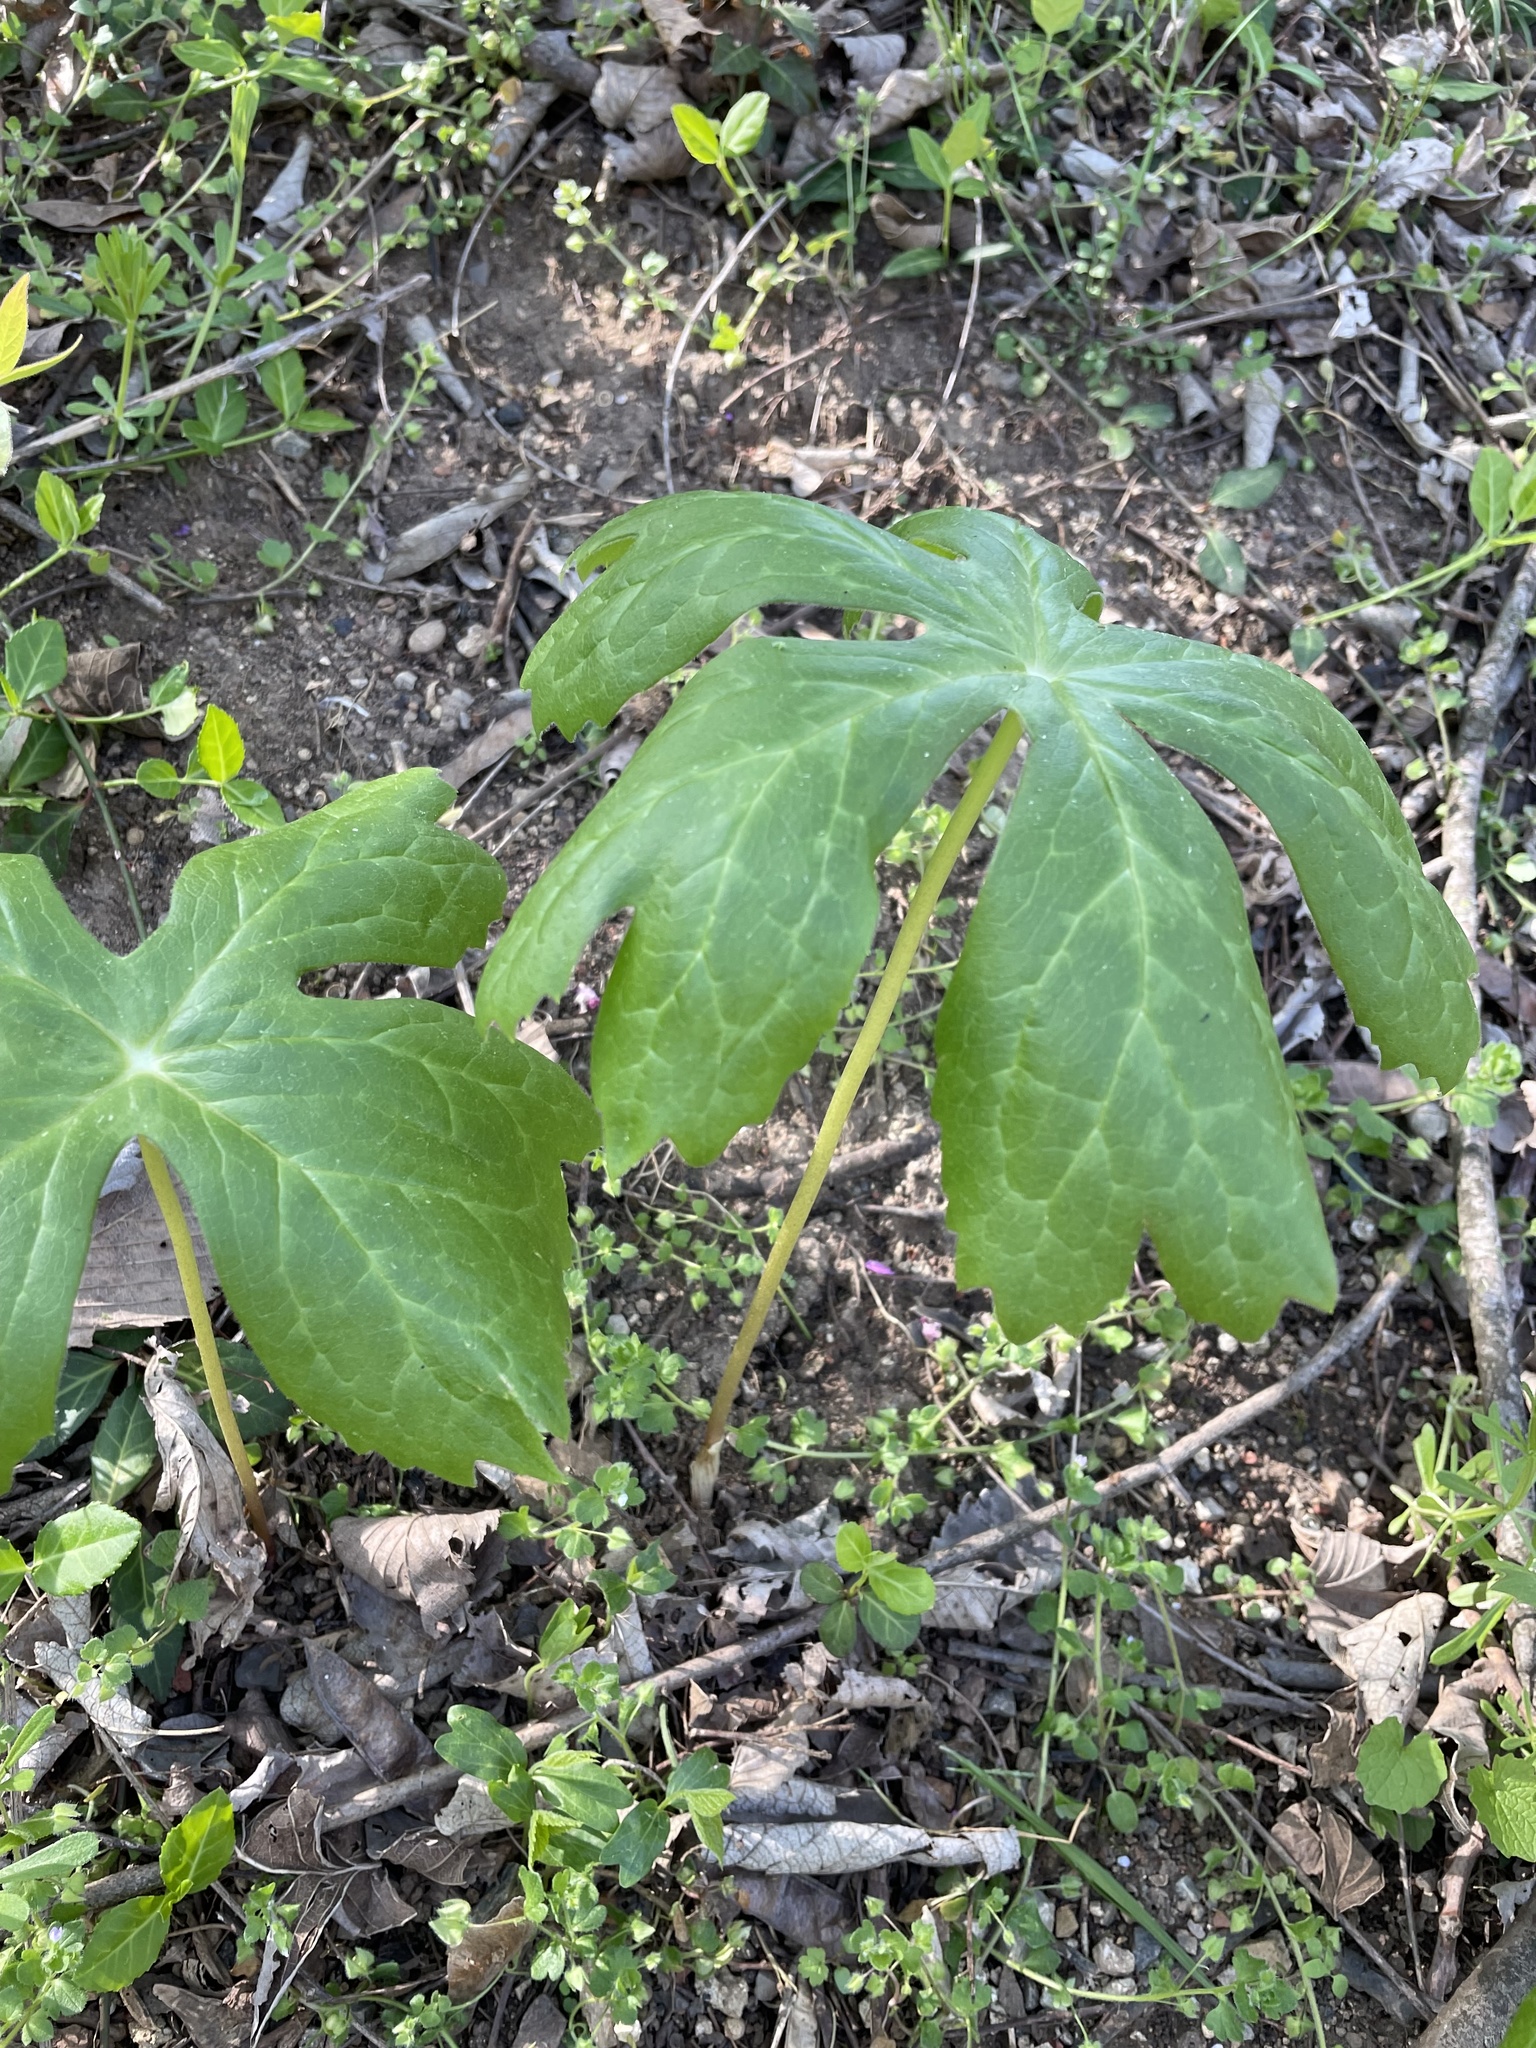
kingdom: Plantae
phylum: Tracheophyta
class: Magnoliopsida
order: Ranunculales
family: Berberidaceae
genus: Podophyllum
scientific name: Podophyllum peltatum
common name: Wild mandrake
